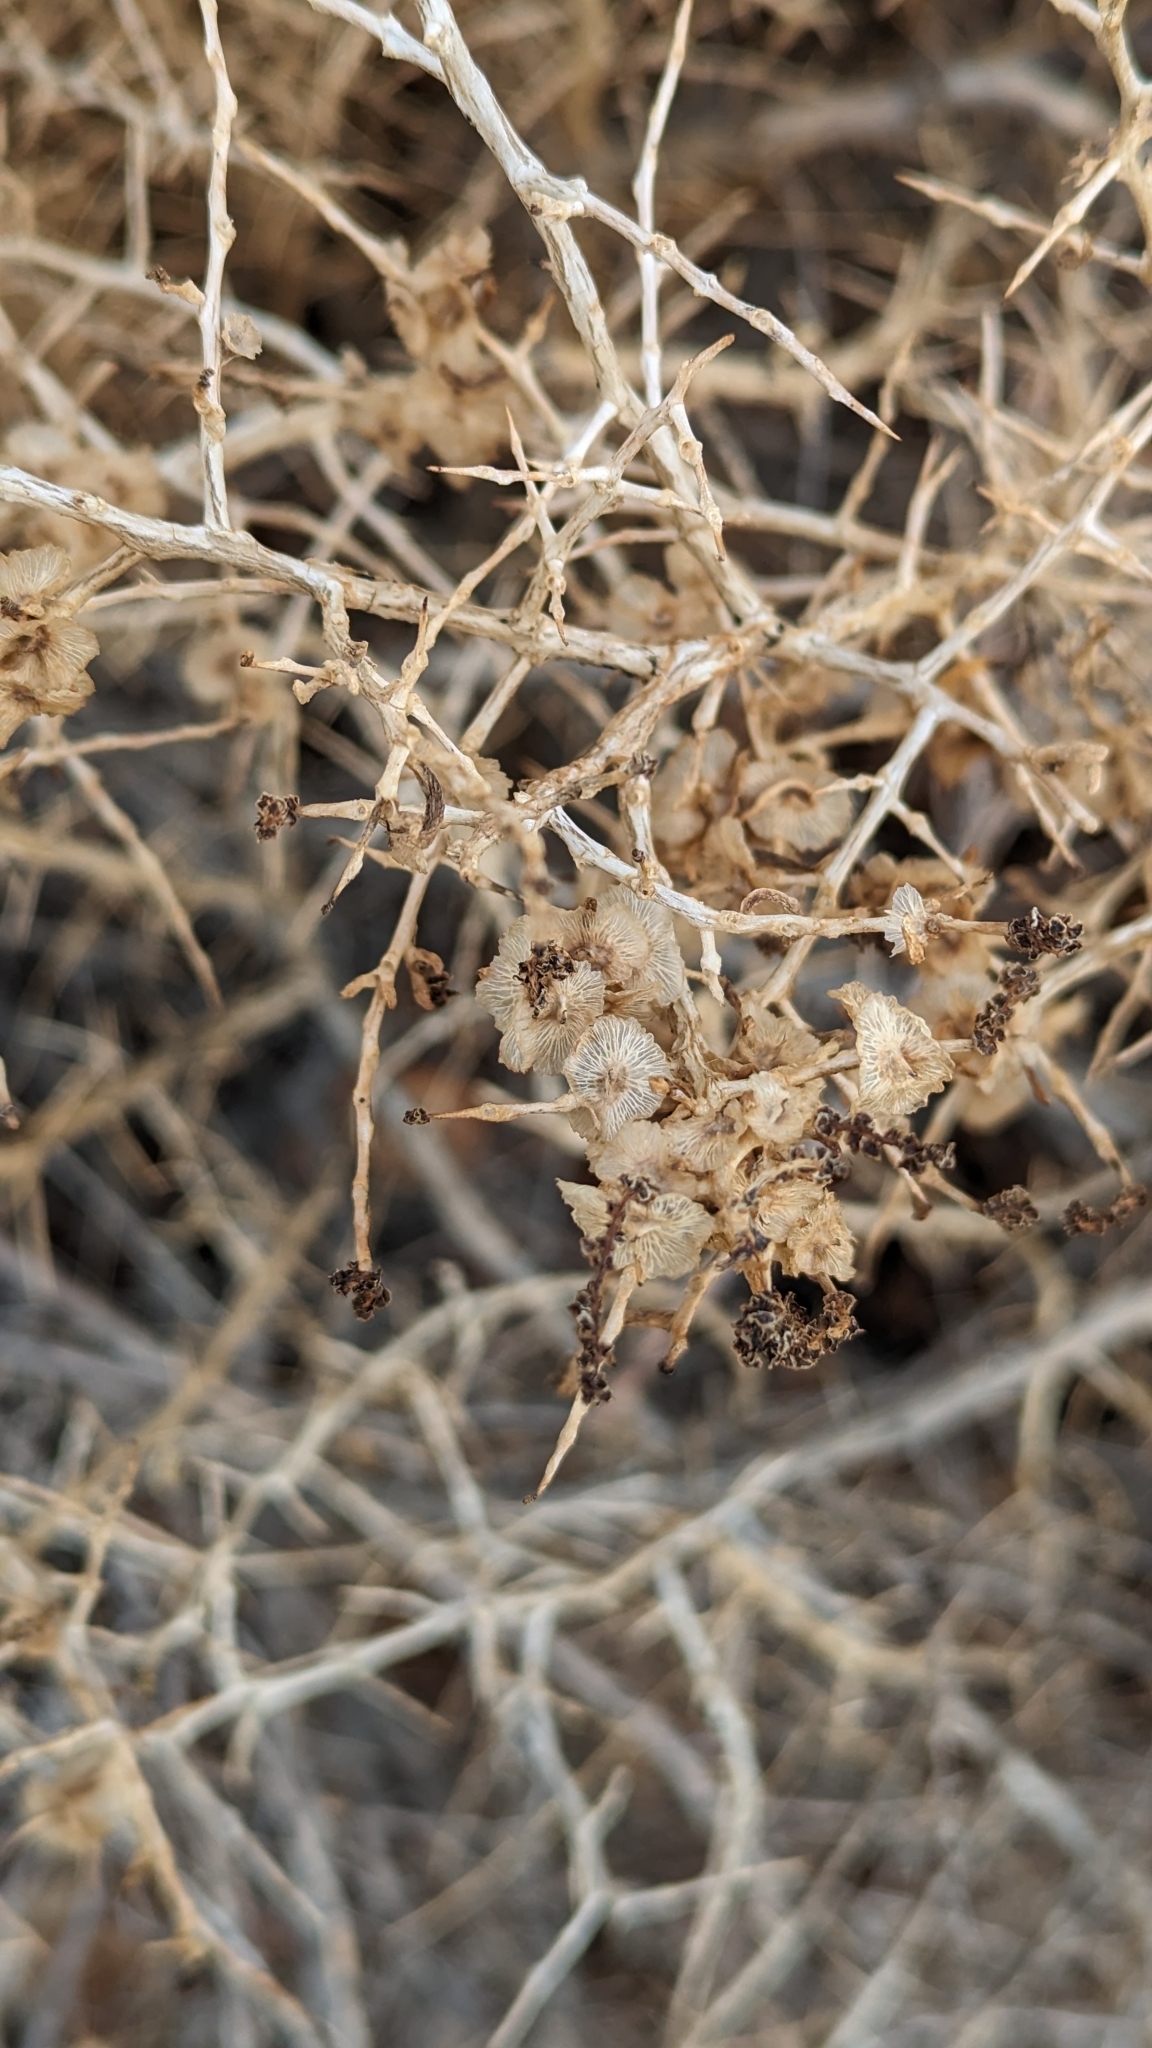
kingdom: Plantae
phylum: Tracheophyta
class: Magnoliopsida
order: Caryophyllales
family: Sarcobataceae
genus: Sarcobatus
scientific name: Sarcobatus vermiculatus
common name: Greasewood
